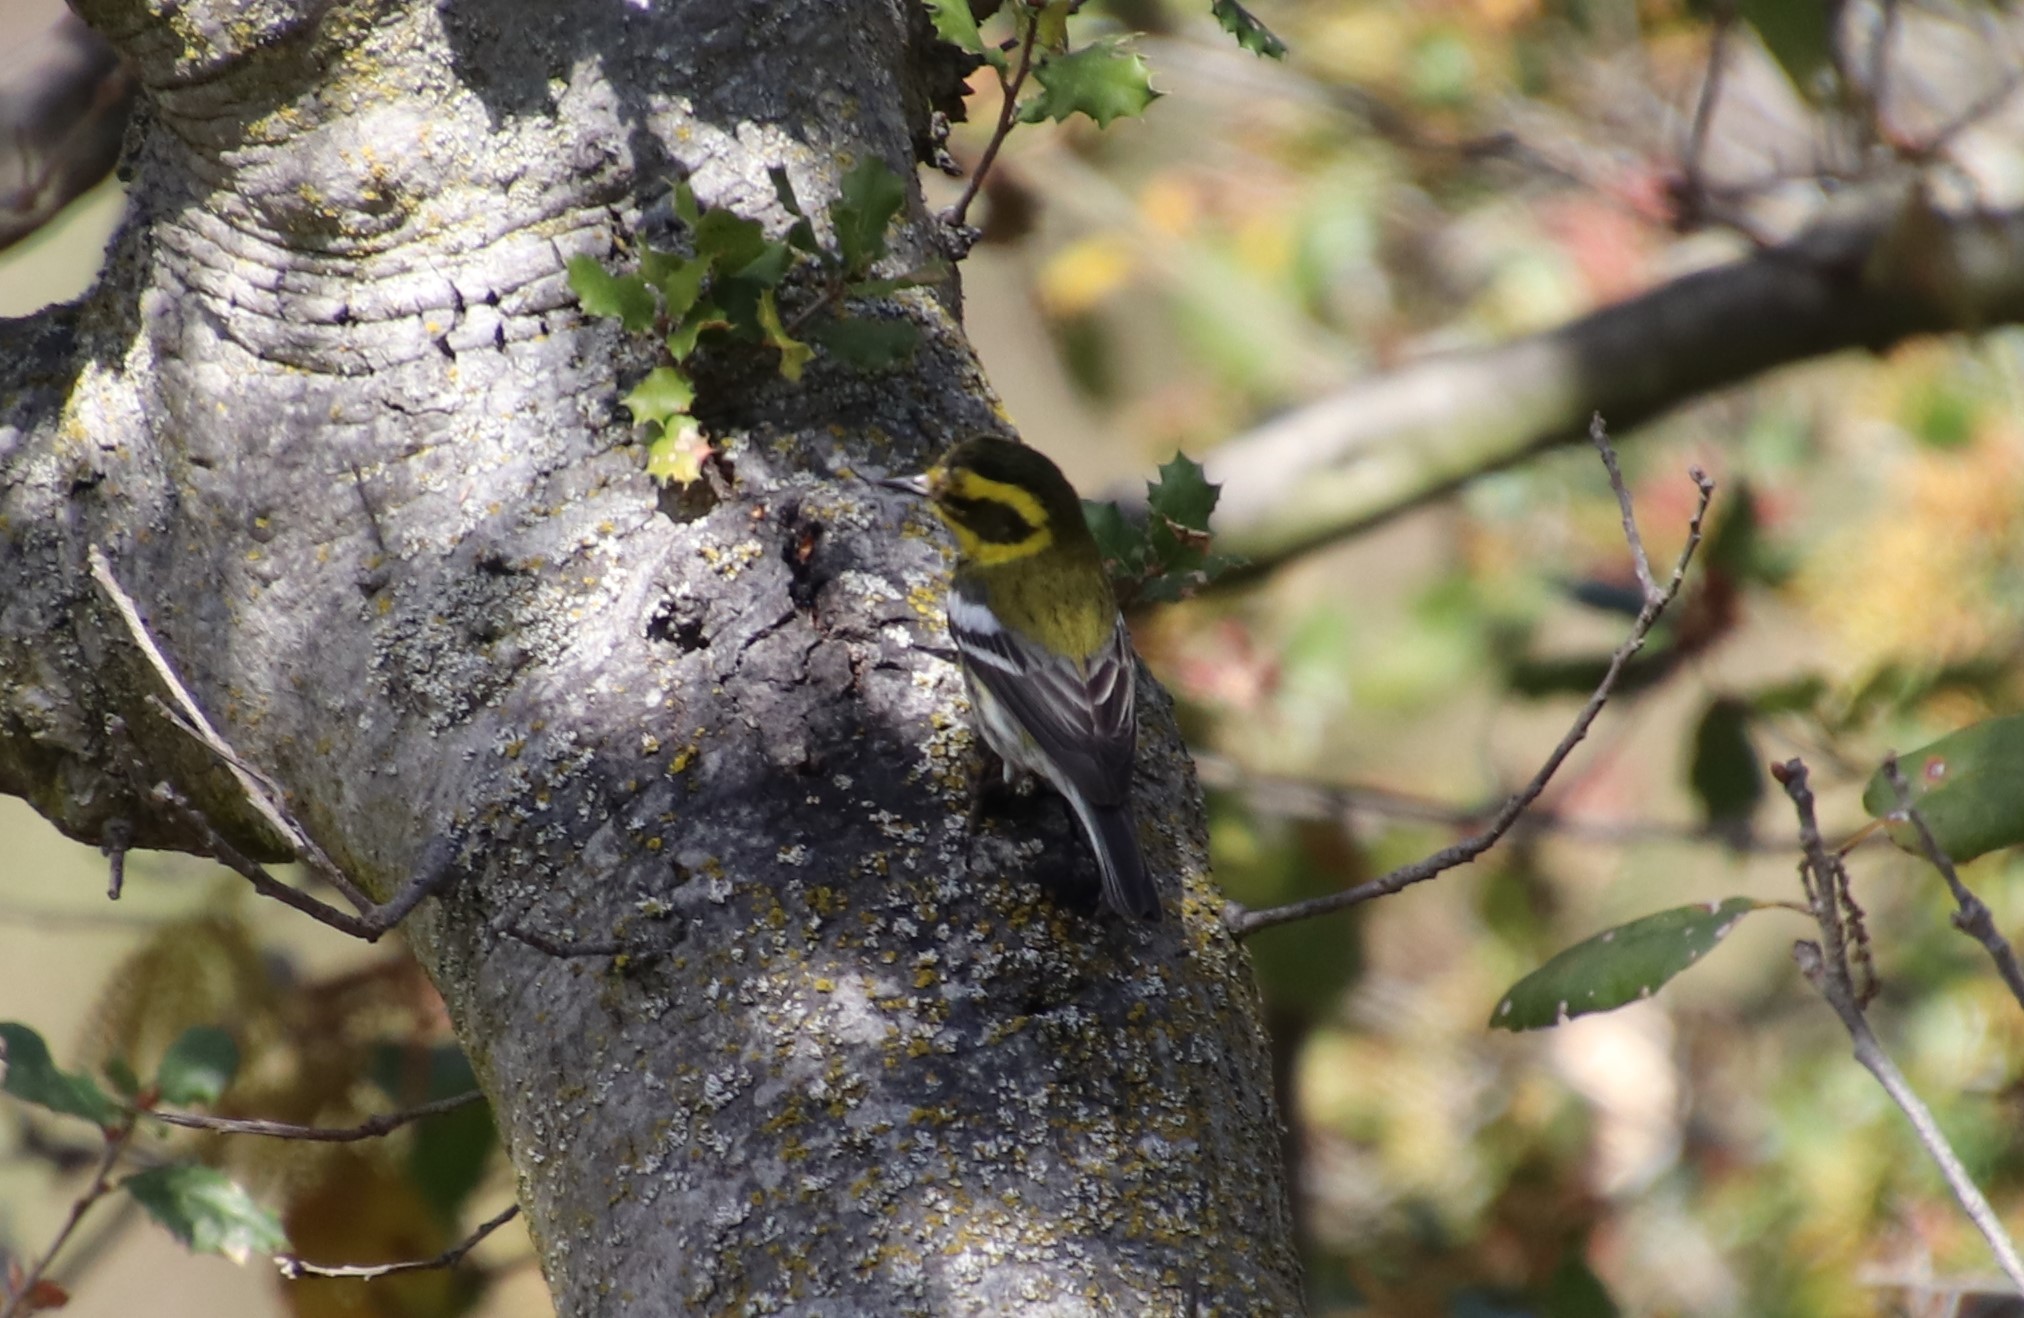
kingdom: Animalia
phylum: Chordata
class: Aves
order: Passeriformes
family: Parulidae
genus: Setophaga
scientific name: Setophaga townsendi
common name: Townsend's warbler
